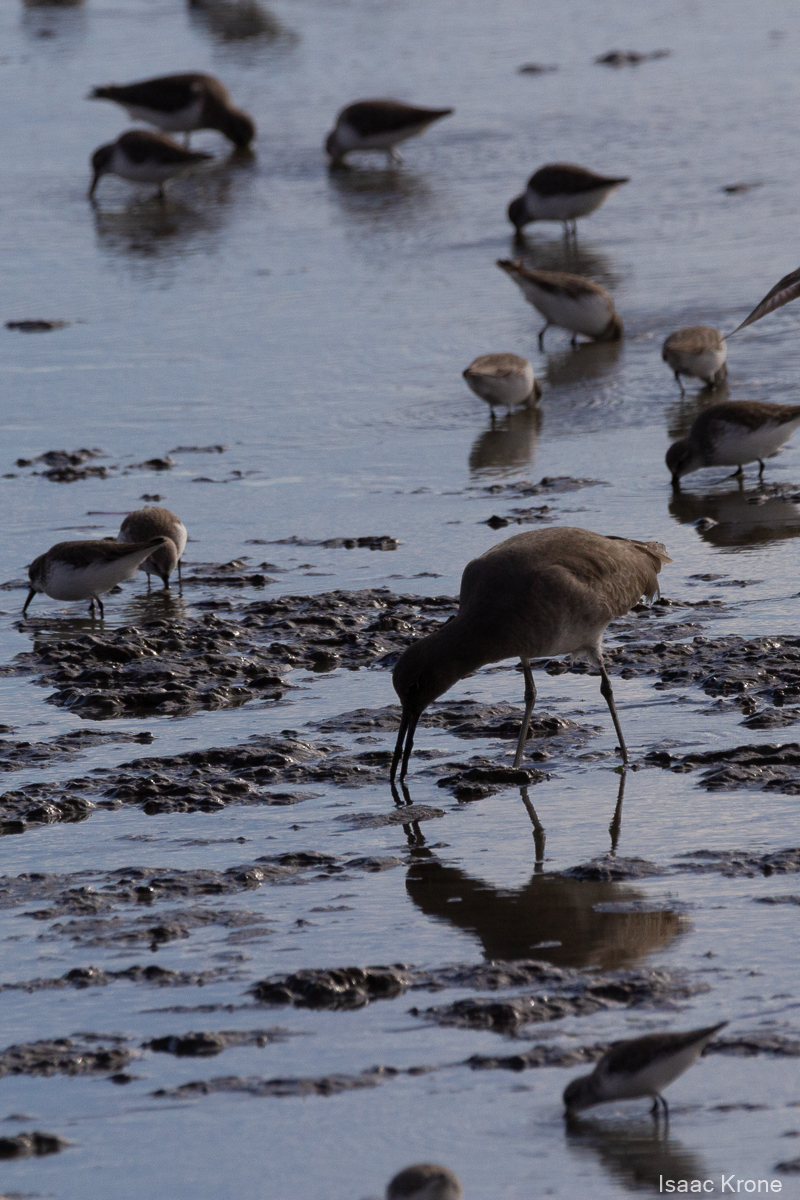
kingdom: Animalia
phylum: Chordata
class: Aves
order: Charadriiformes
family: Scolopacidae
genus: Tringa
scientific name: Tringa semipalmata
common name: Willet
